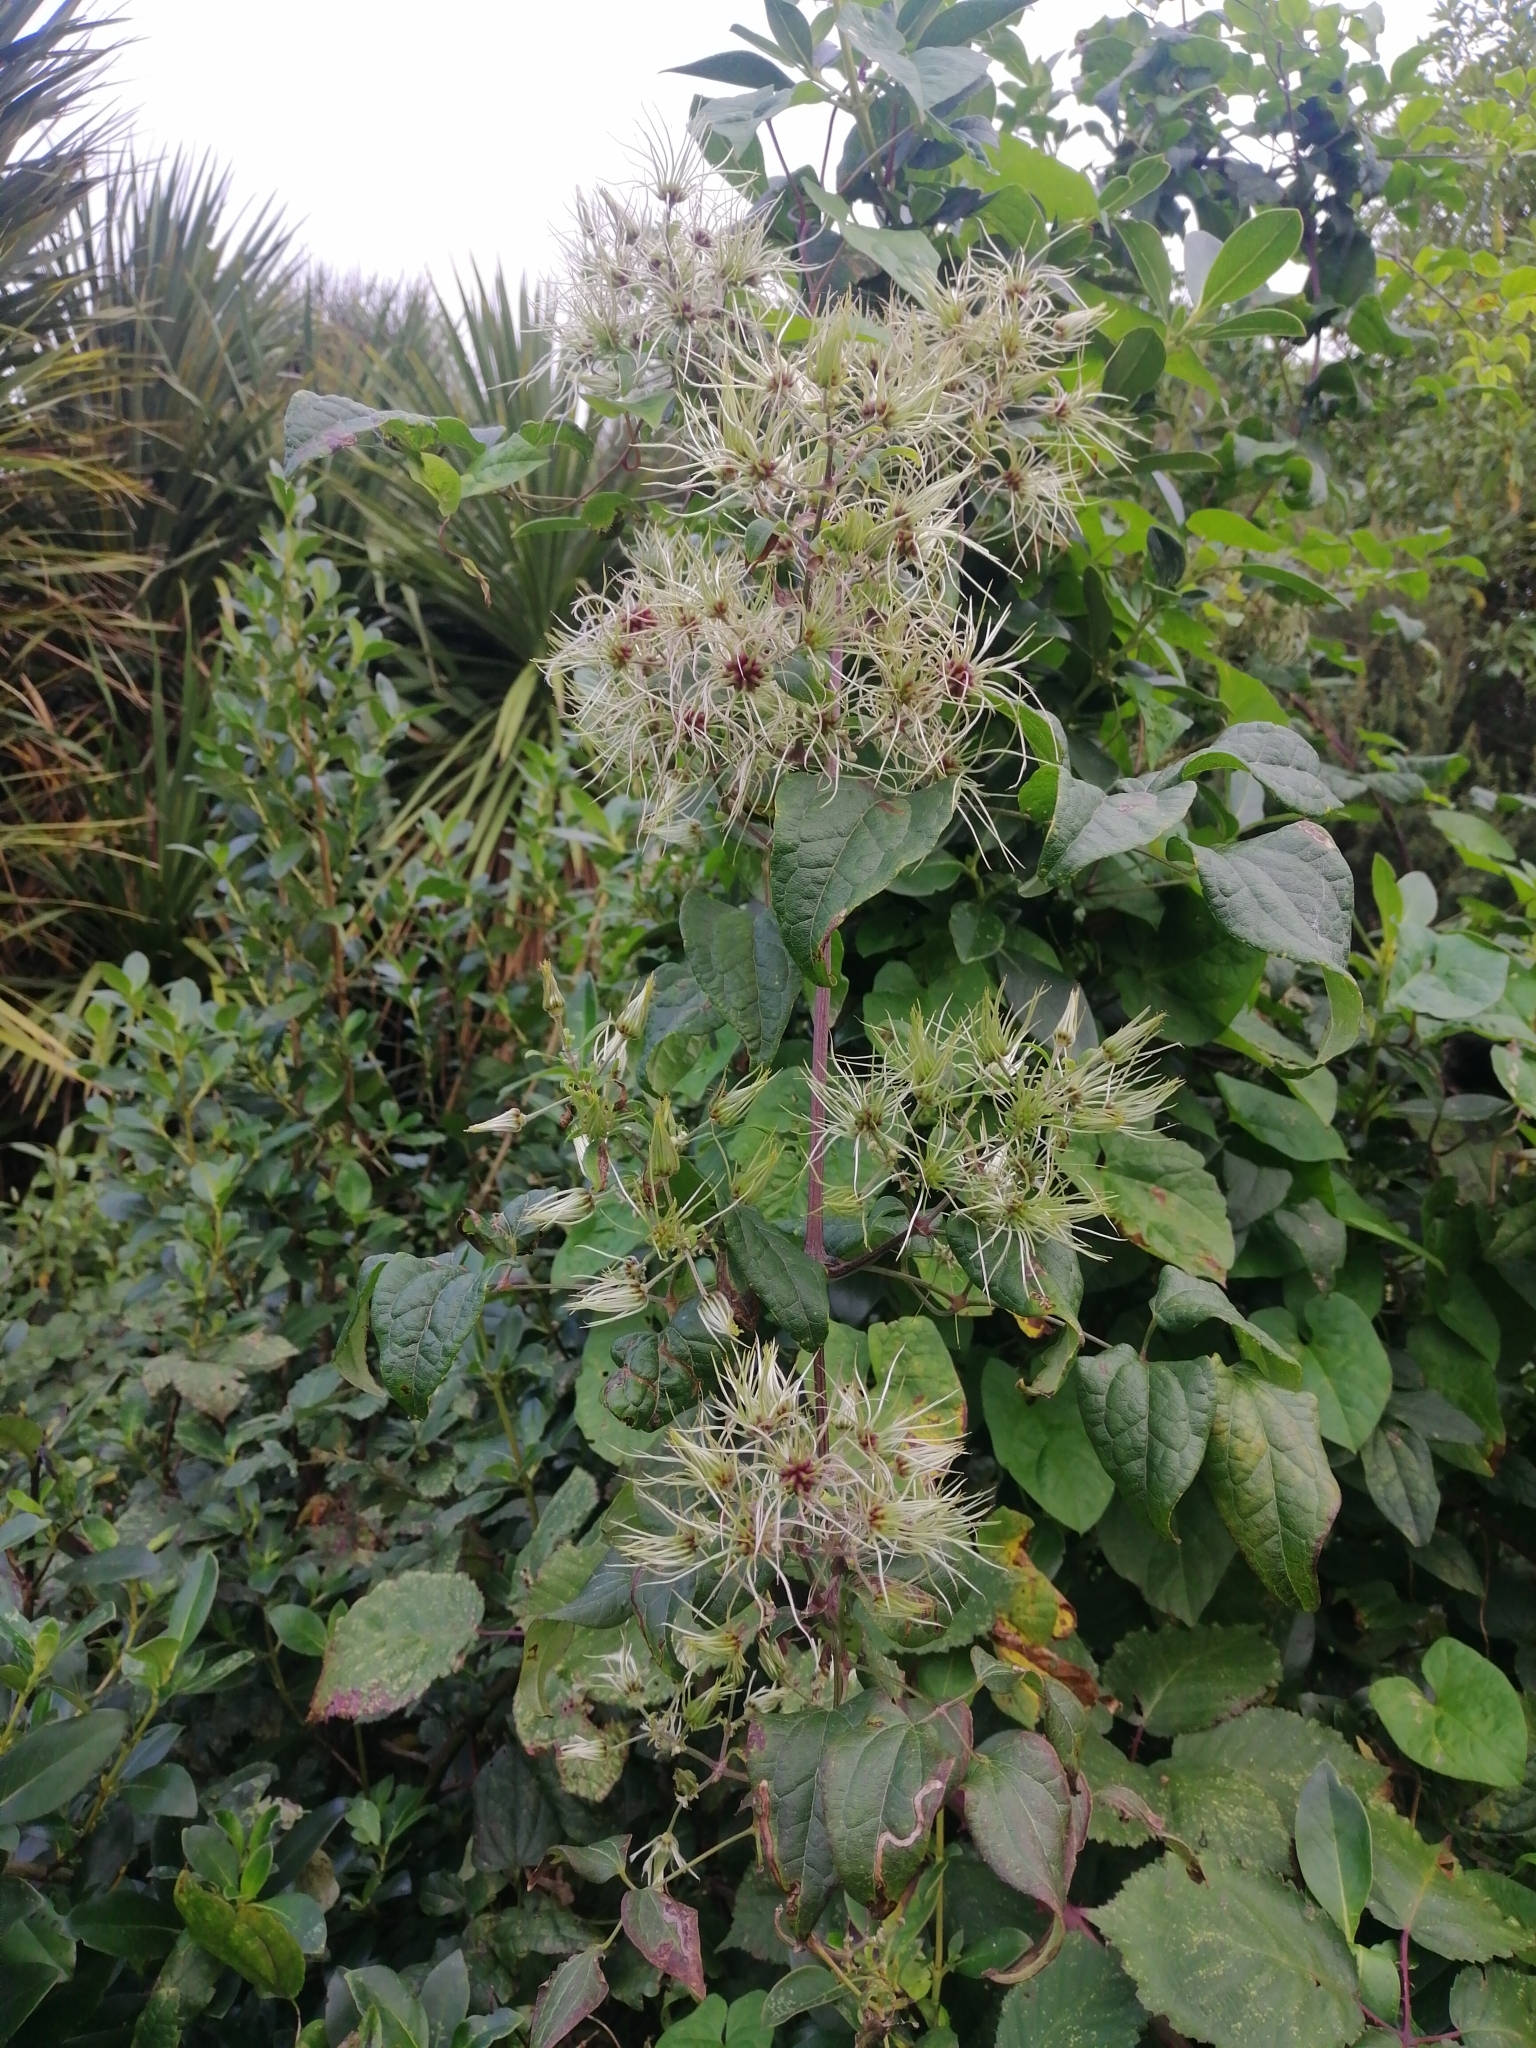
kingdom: Plantae
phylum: Tracheophyta
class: Magnoliopsida
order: Ranunculales
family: Ranunculaceae
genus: Clematis
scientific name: Clematis vitalba
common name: Evergreen clematis
